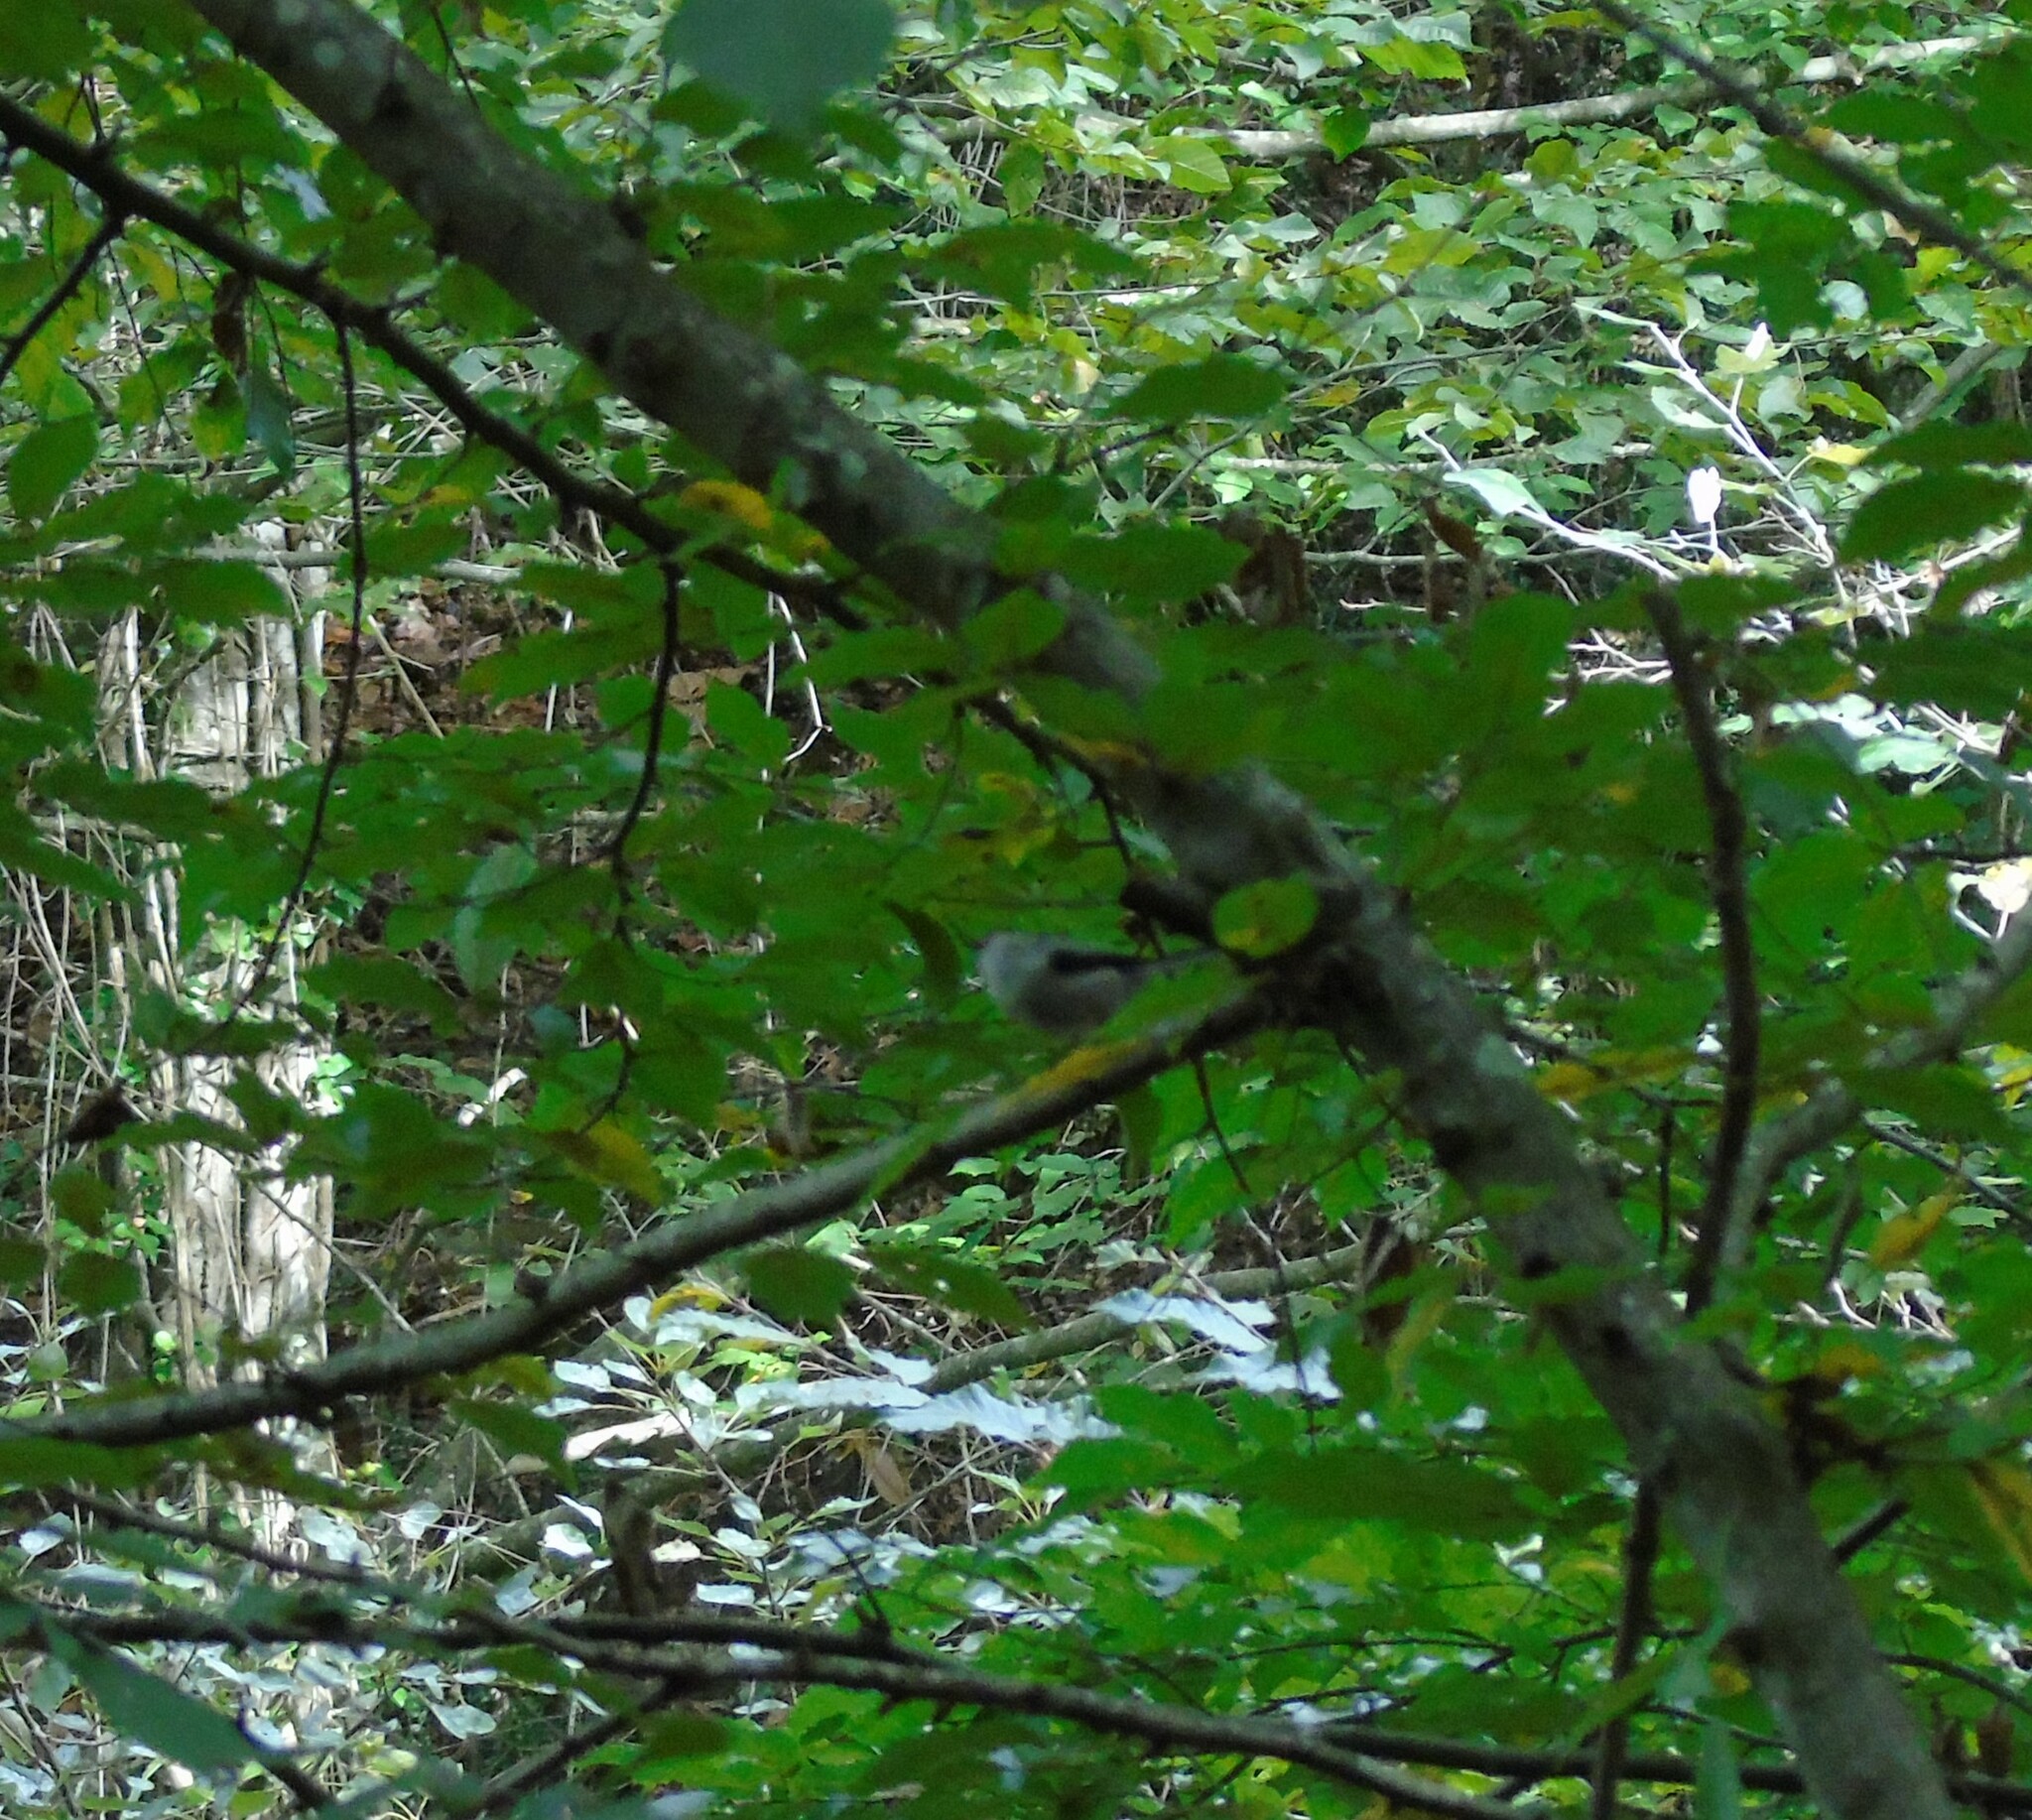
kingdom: Animalia
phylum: Chordata
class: Aves
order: Passeriformes
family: Aegithalidae
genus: Aegithalos
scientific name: Aegithalos caudatus
